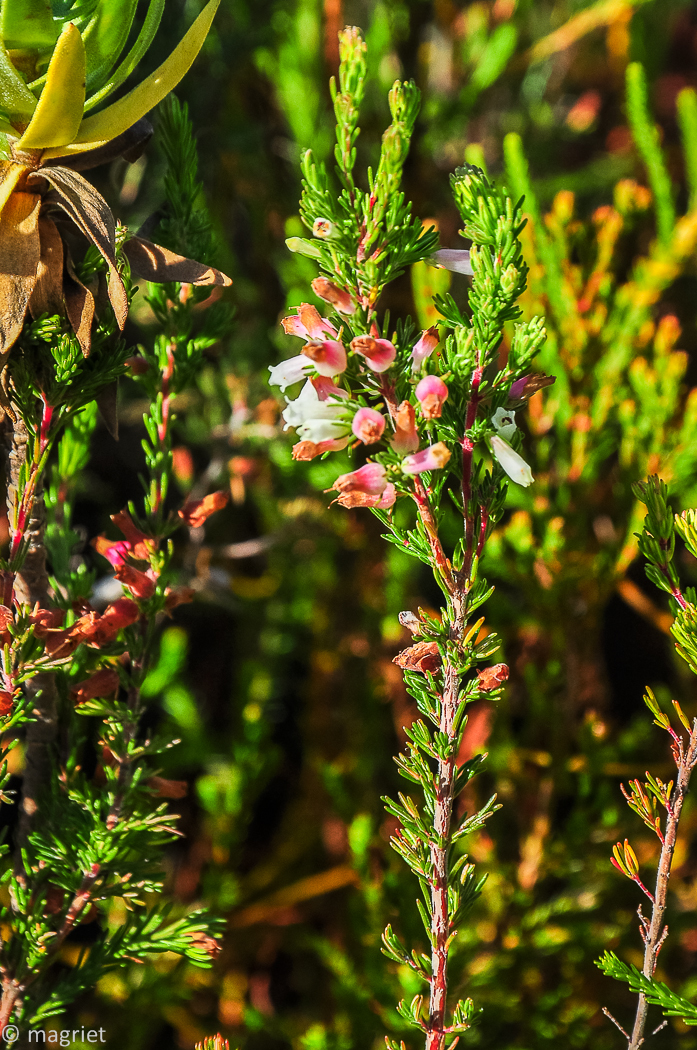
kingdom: Plantae
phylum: Tracheophyta
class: Magnoliopsida
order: Ericales
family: Ericaceae
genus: Erica
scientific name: Erica fontana
